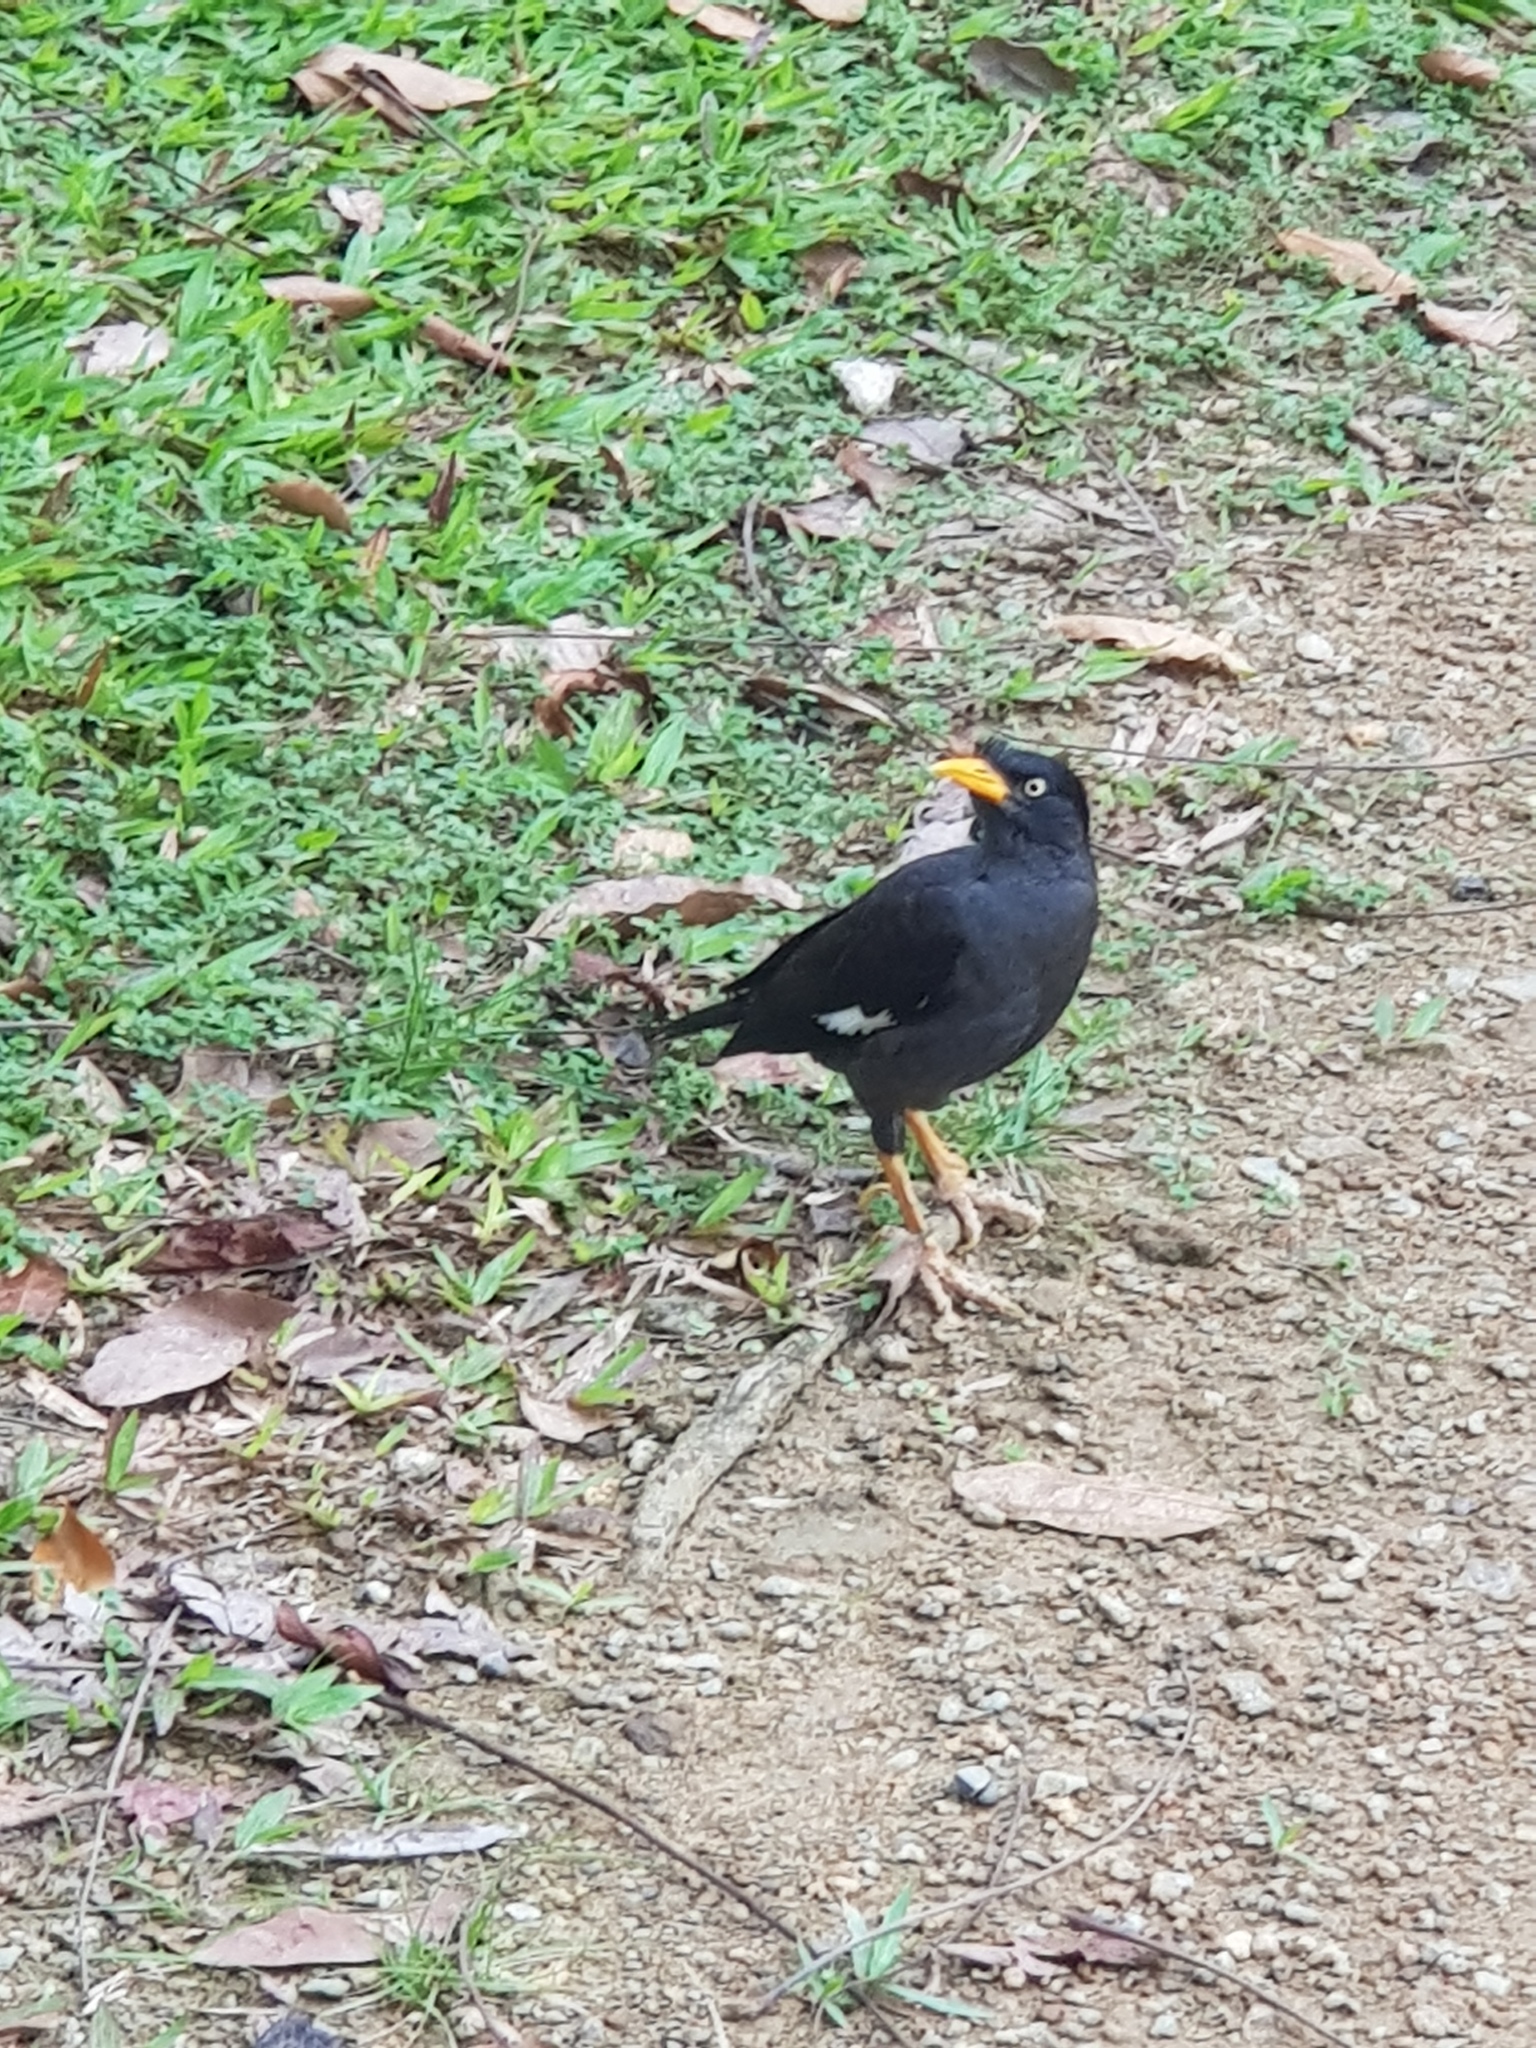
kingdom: Animalia
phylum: Chordata
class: Aves
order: Passeriformes
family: Sturnidae
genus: Acridotheres
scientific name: Acridotheres javanicus
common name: Javan myna
